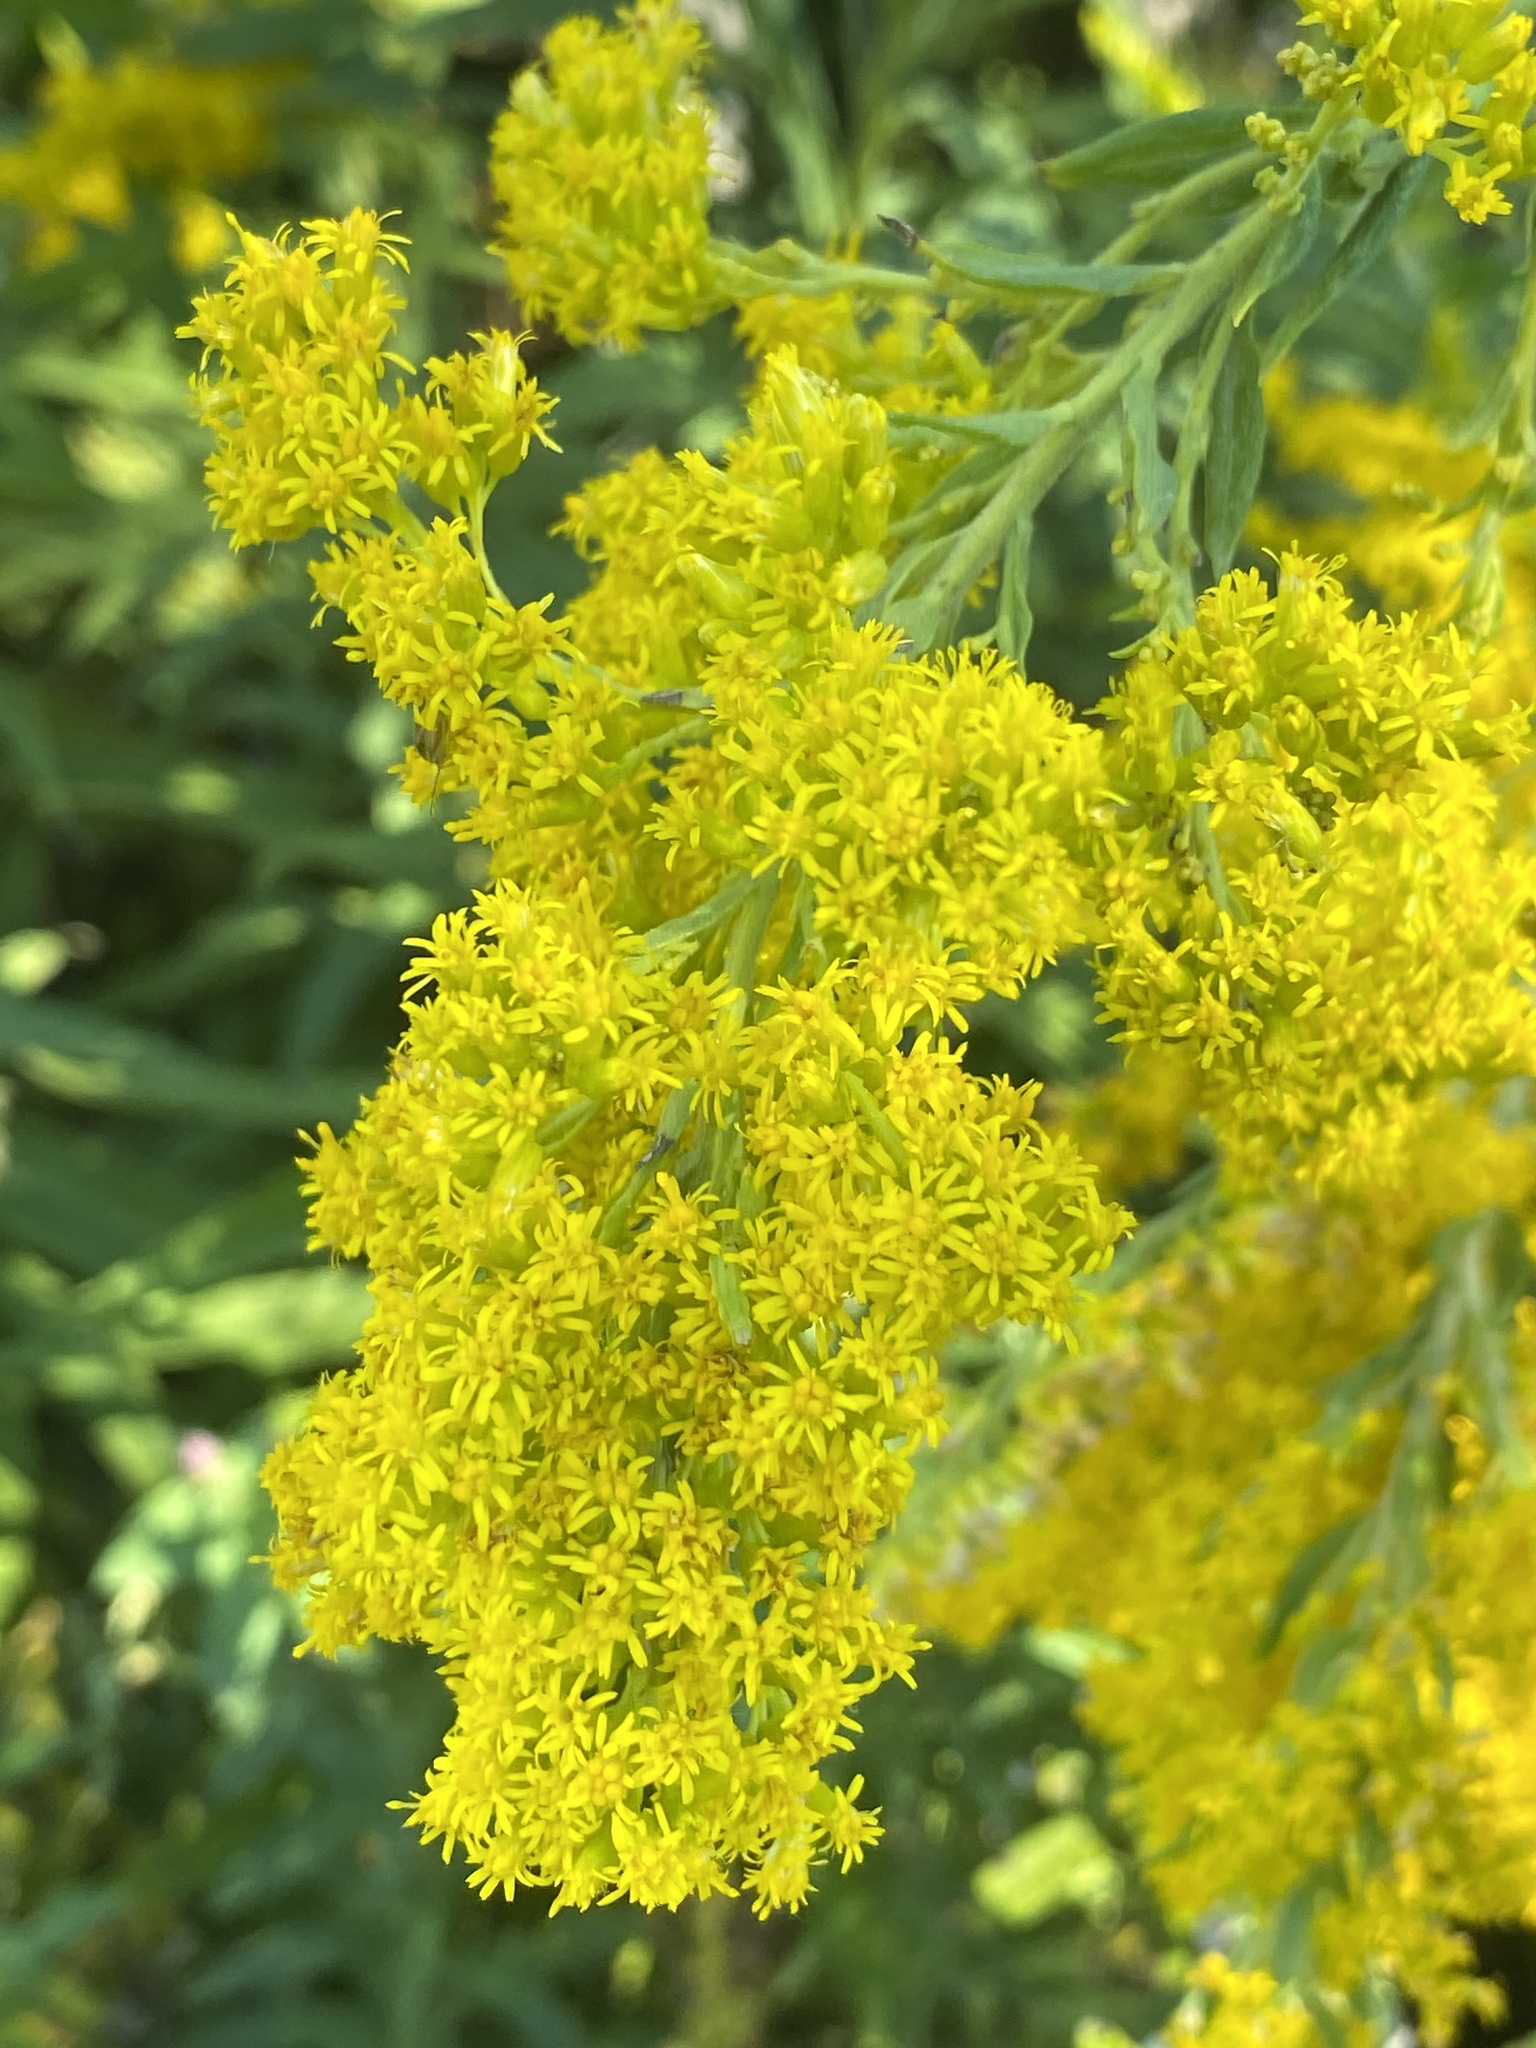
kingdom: Plantae
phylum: Tracheophyta
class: Magnoliopsida
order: Asterales
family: Asteraceae
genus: Solidago
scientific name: Solidago altissima
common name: Late goldenrod
